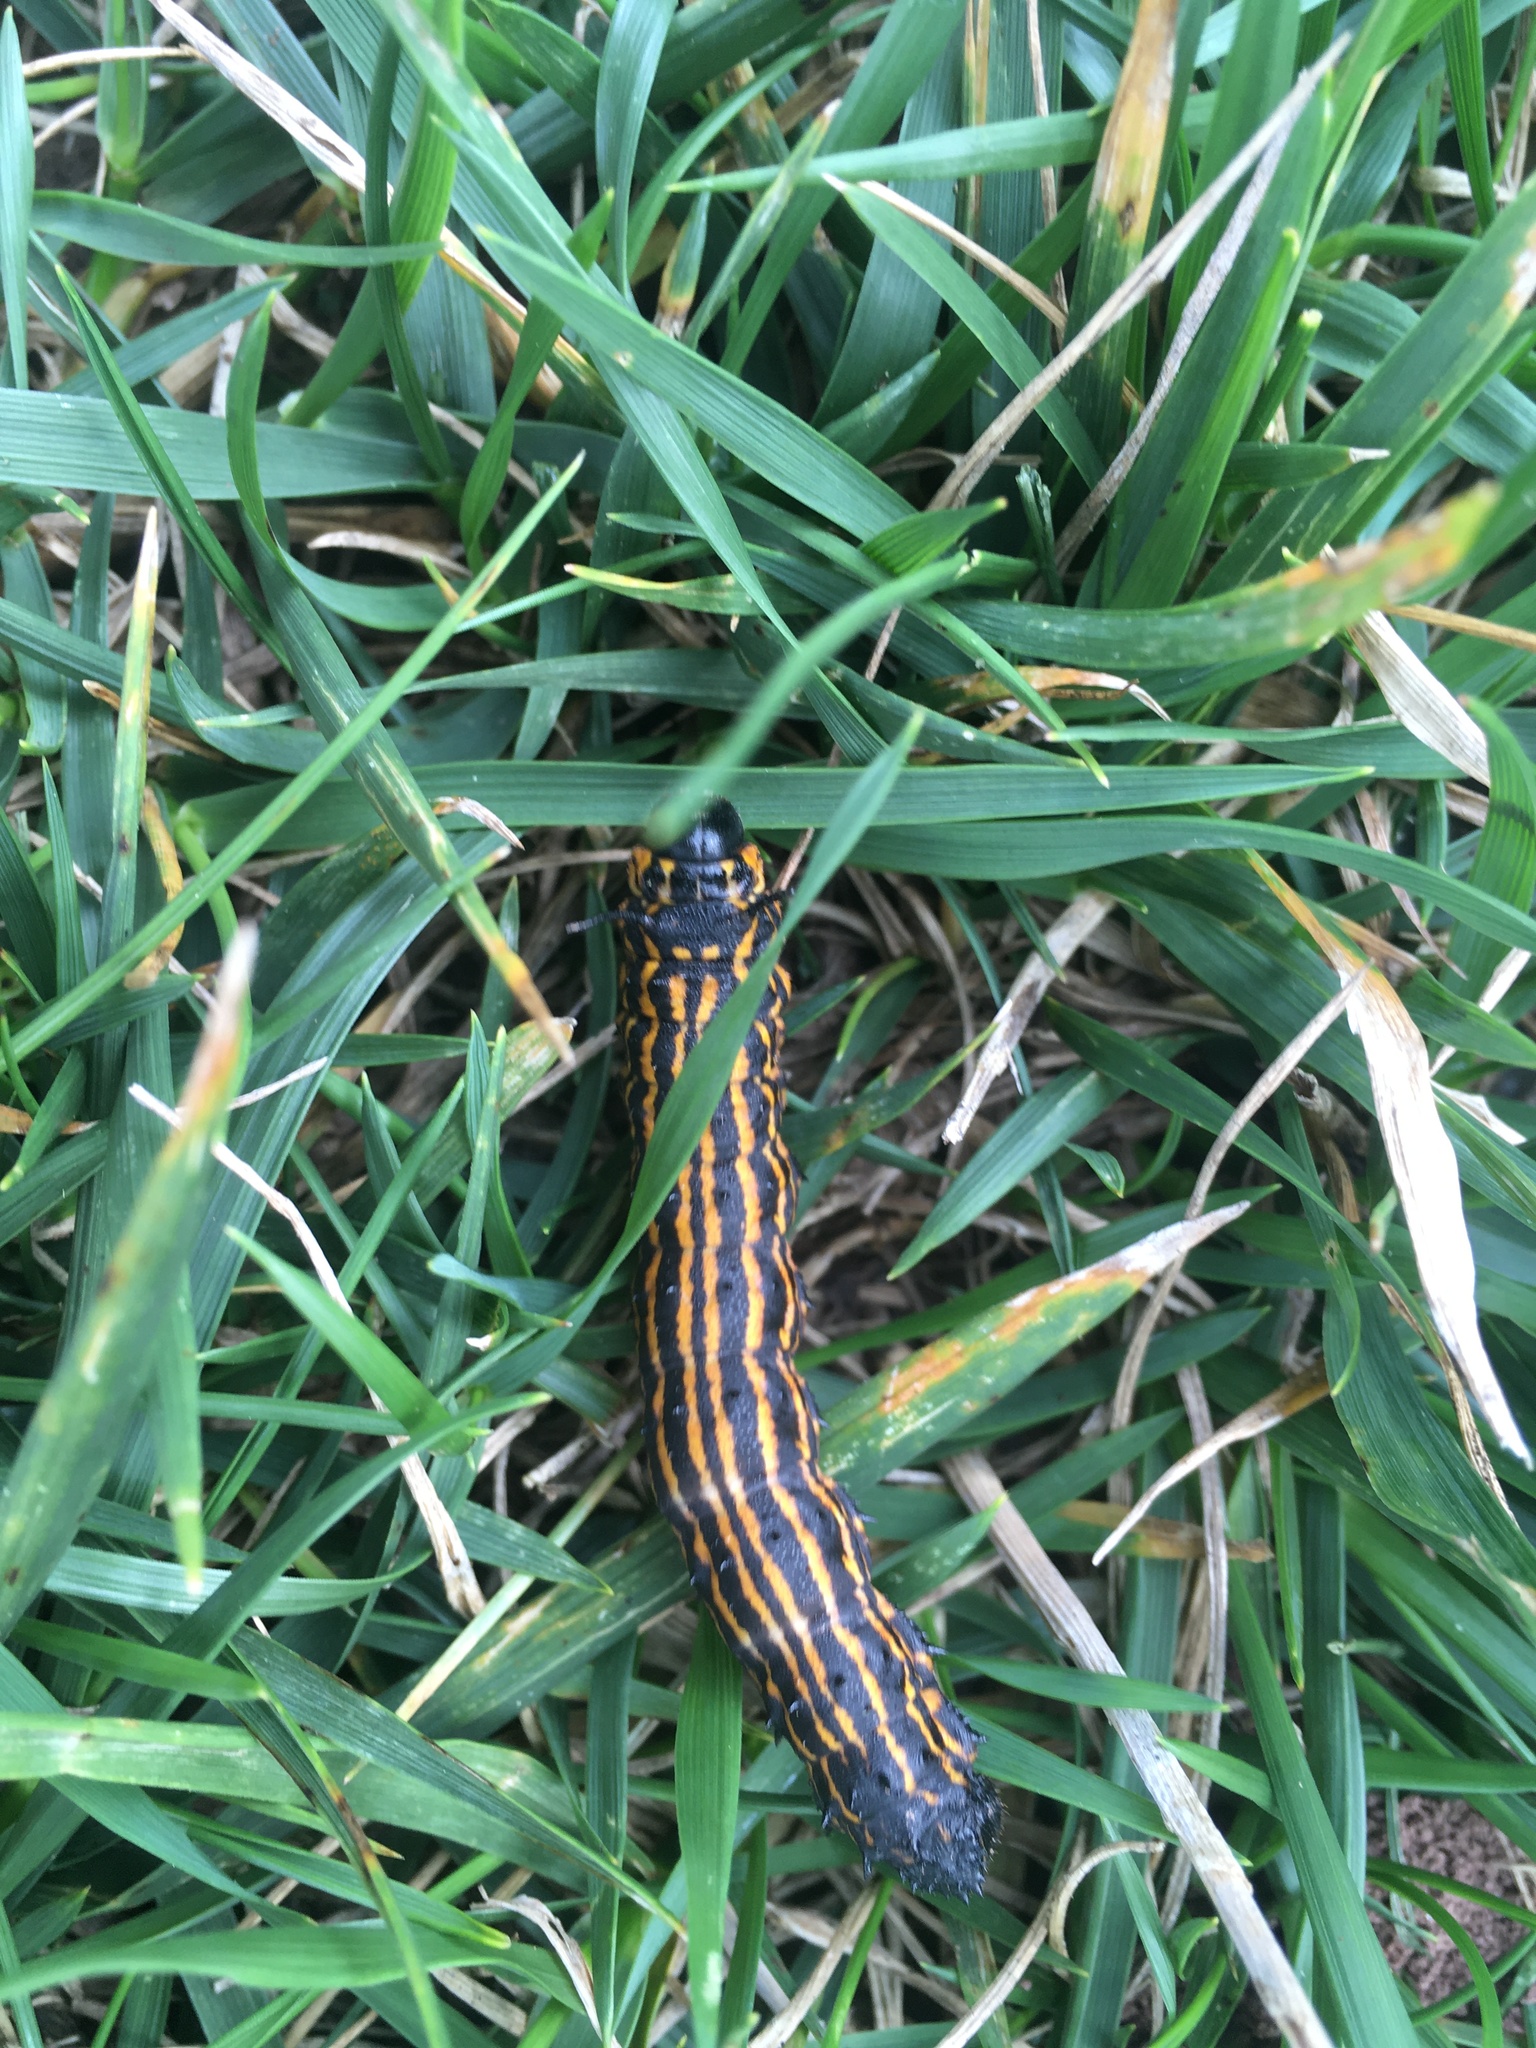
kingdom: Animalia
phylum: Arthropoda
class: Insecta
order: Lepidoptera
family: Saturniidae
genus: Anisota
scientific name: Anisota senatoria
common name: Orange-striped oakworm moth
